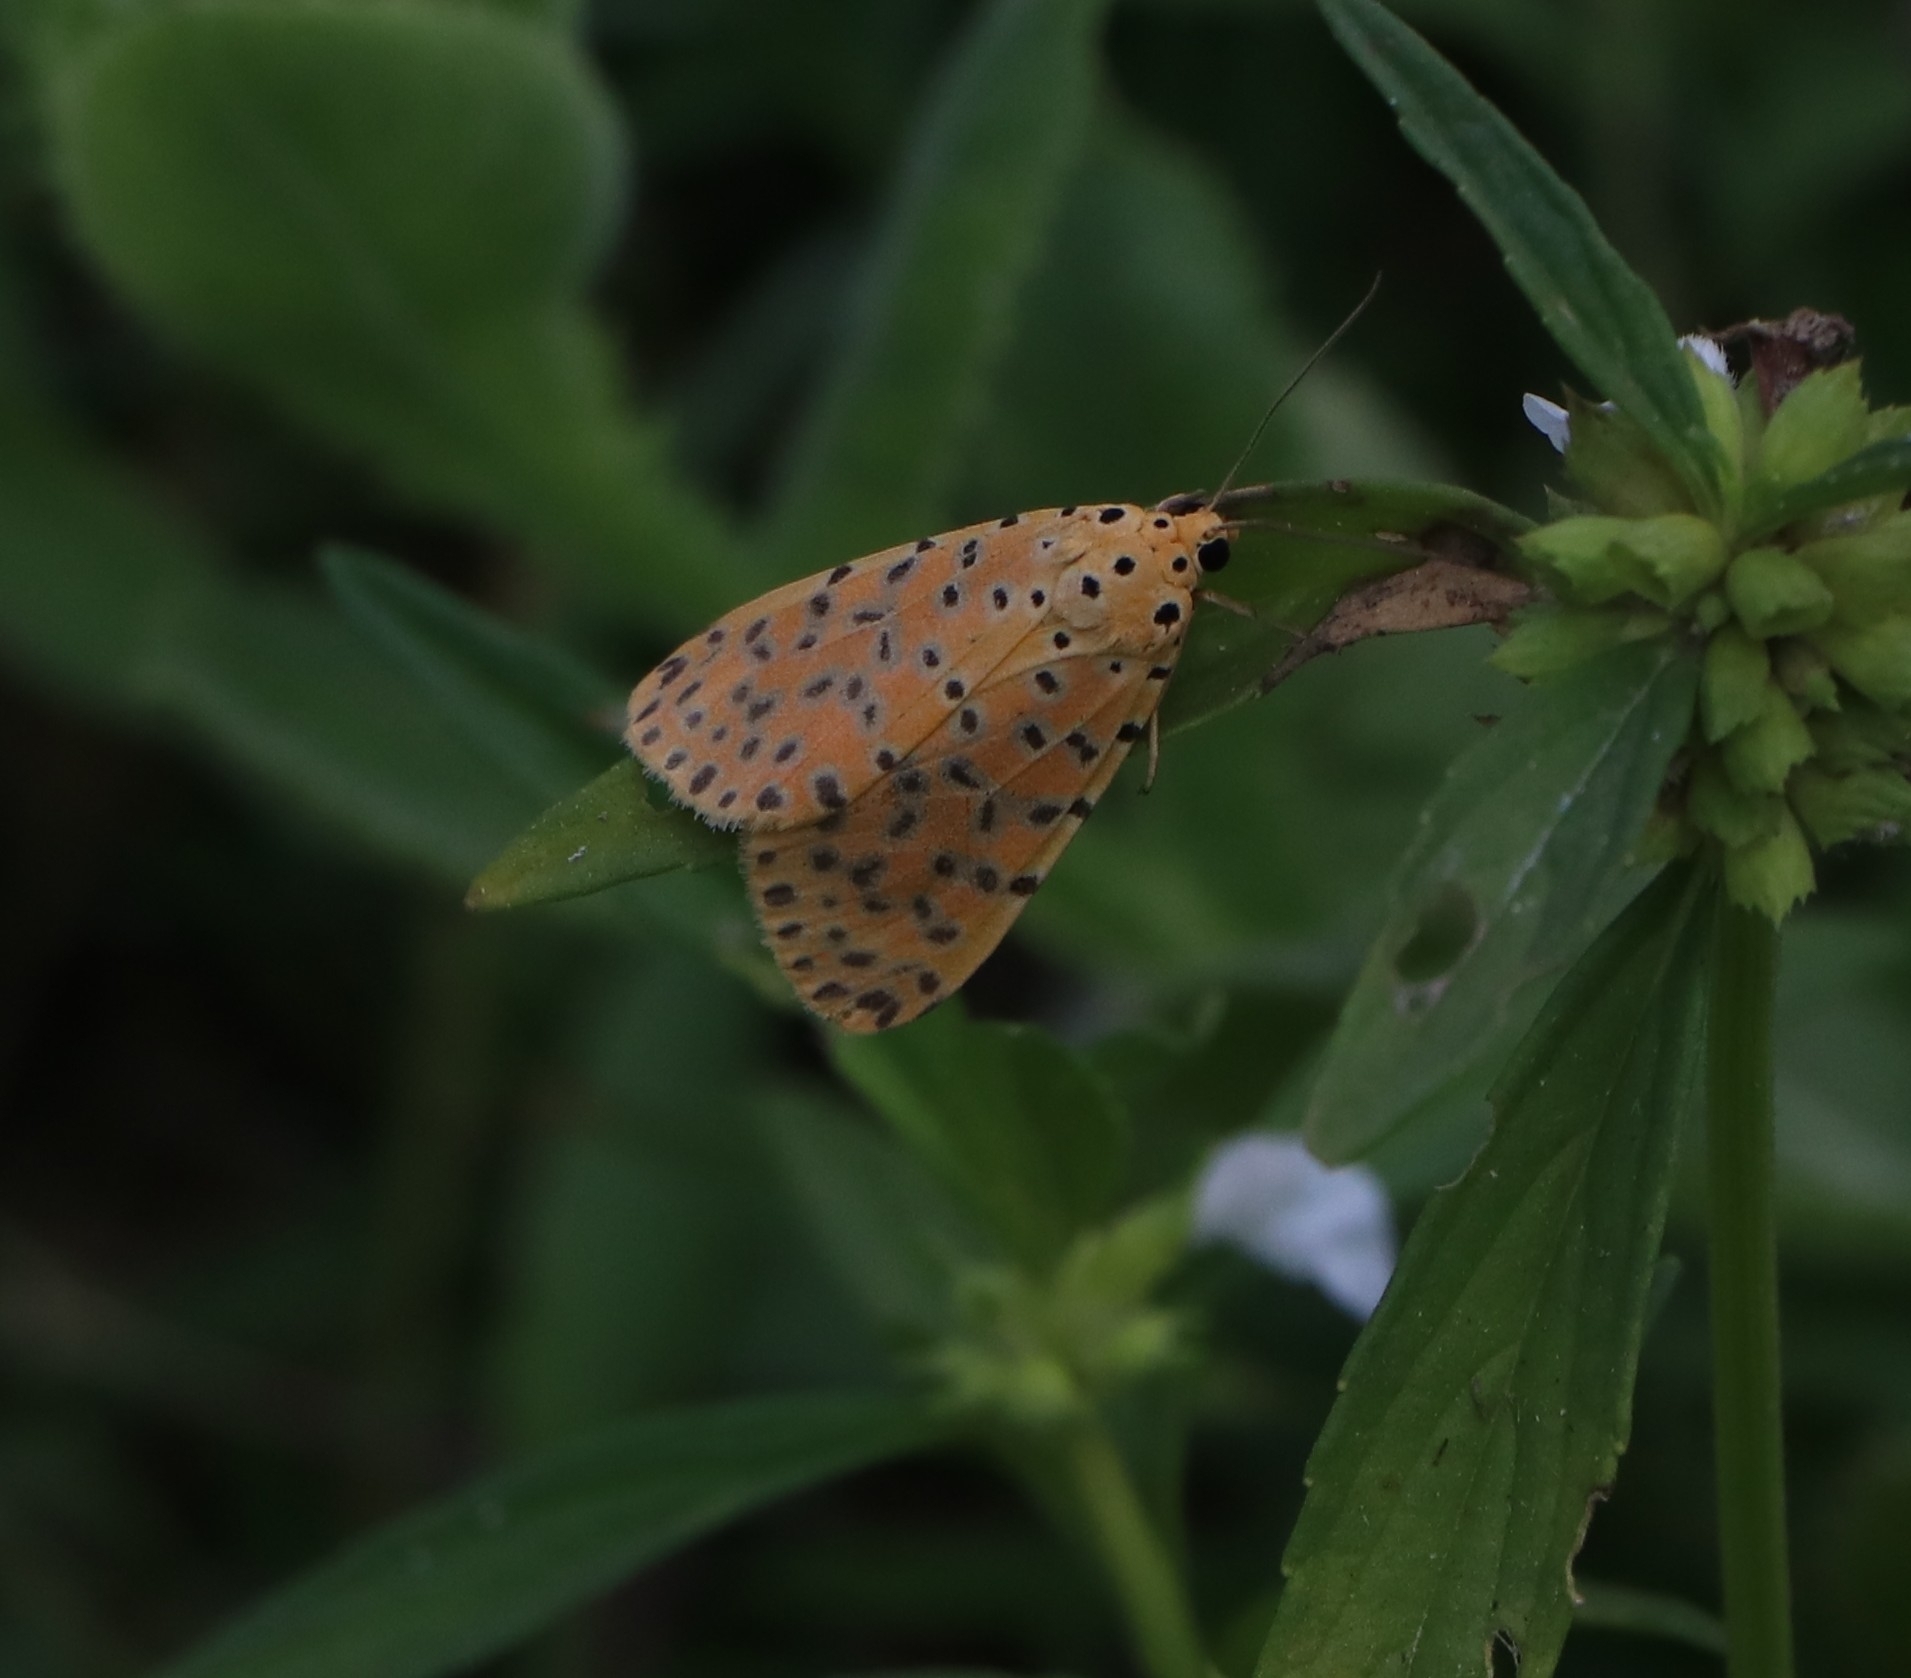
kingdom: Animalia
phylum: Arthropoda
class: Insecta
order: Lepidoptera
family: Erebidae
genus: Argina
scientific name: Argina astrea
